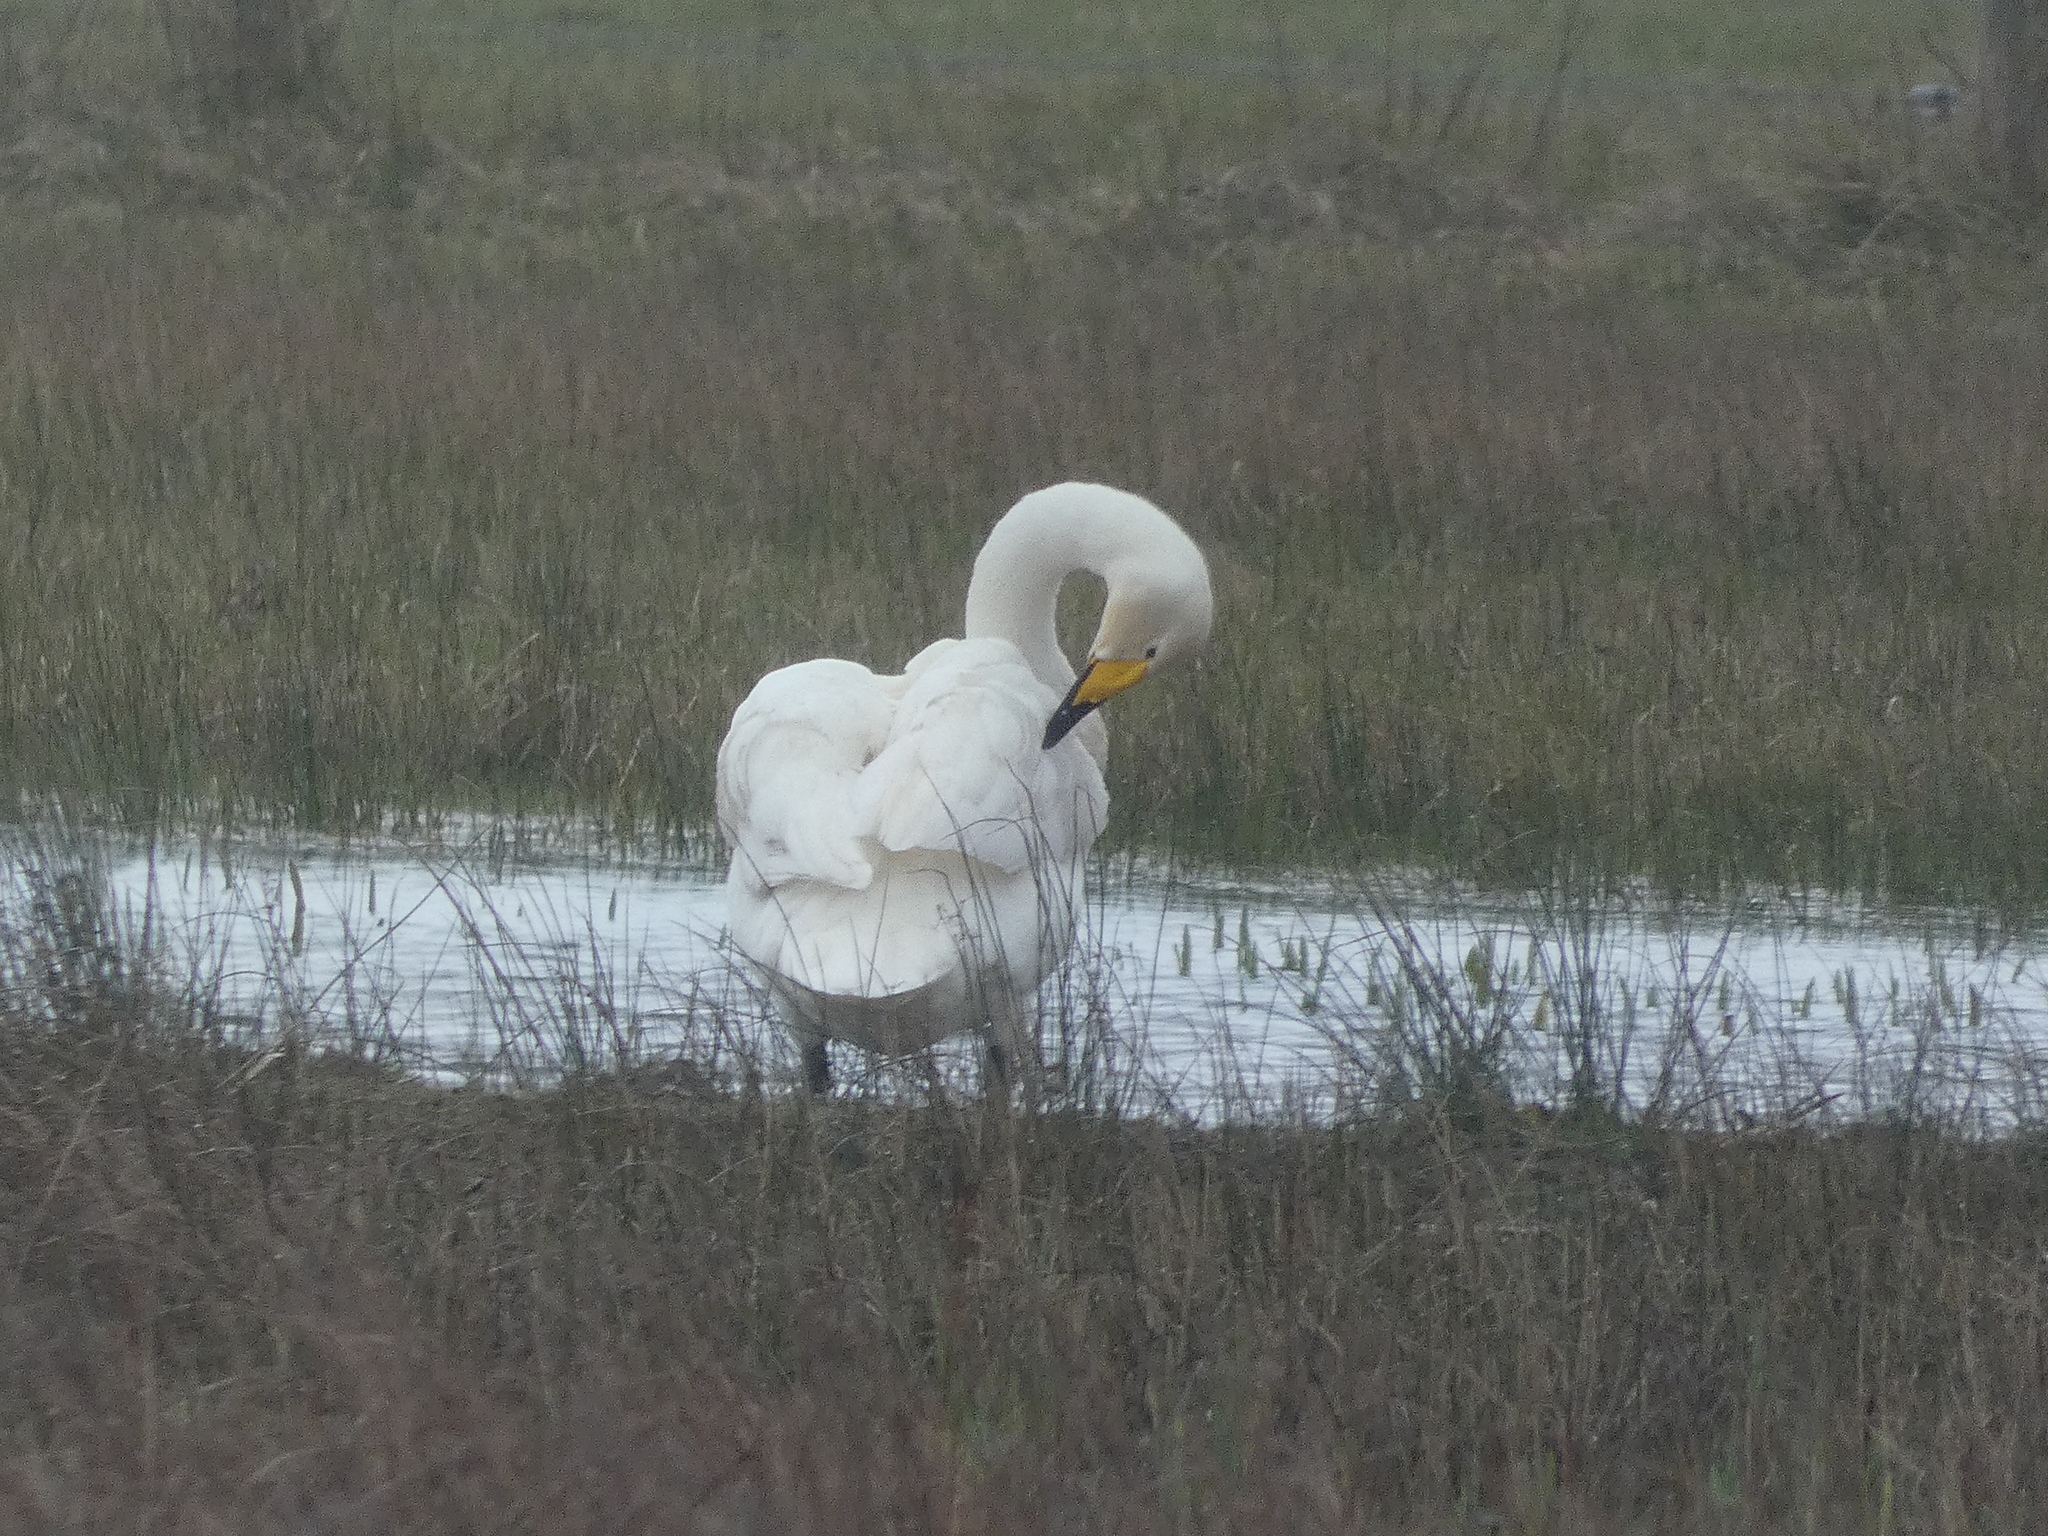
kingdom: Animalia
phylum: Chordata
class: Aves
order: Anseriformes
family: Anatidae
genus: Cygnus
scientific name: Cygnus cygnus
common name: Whooper swan
